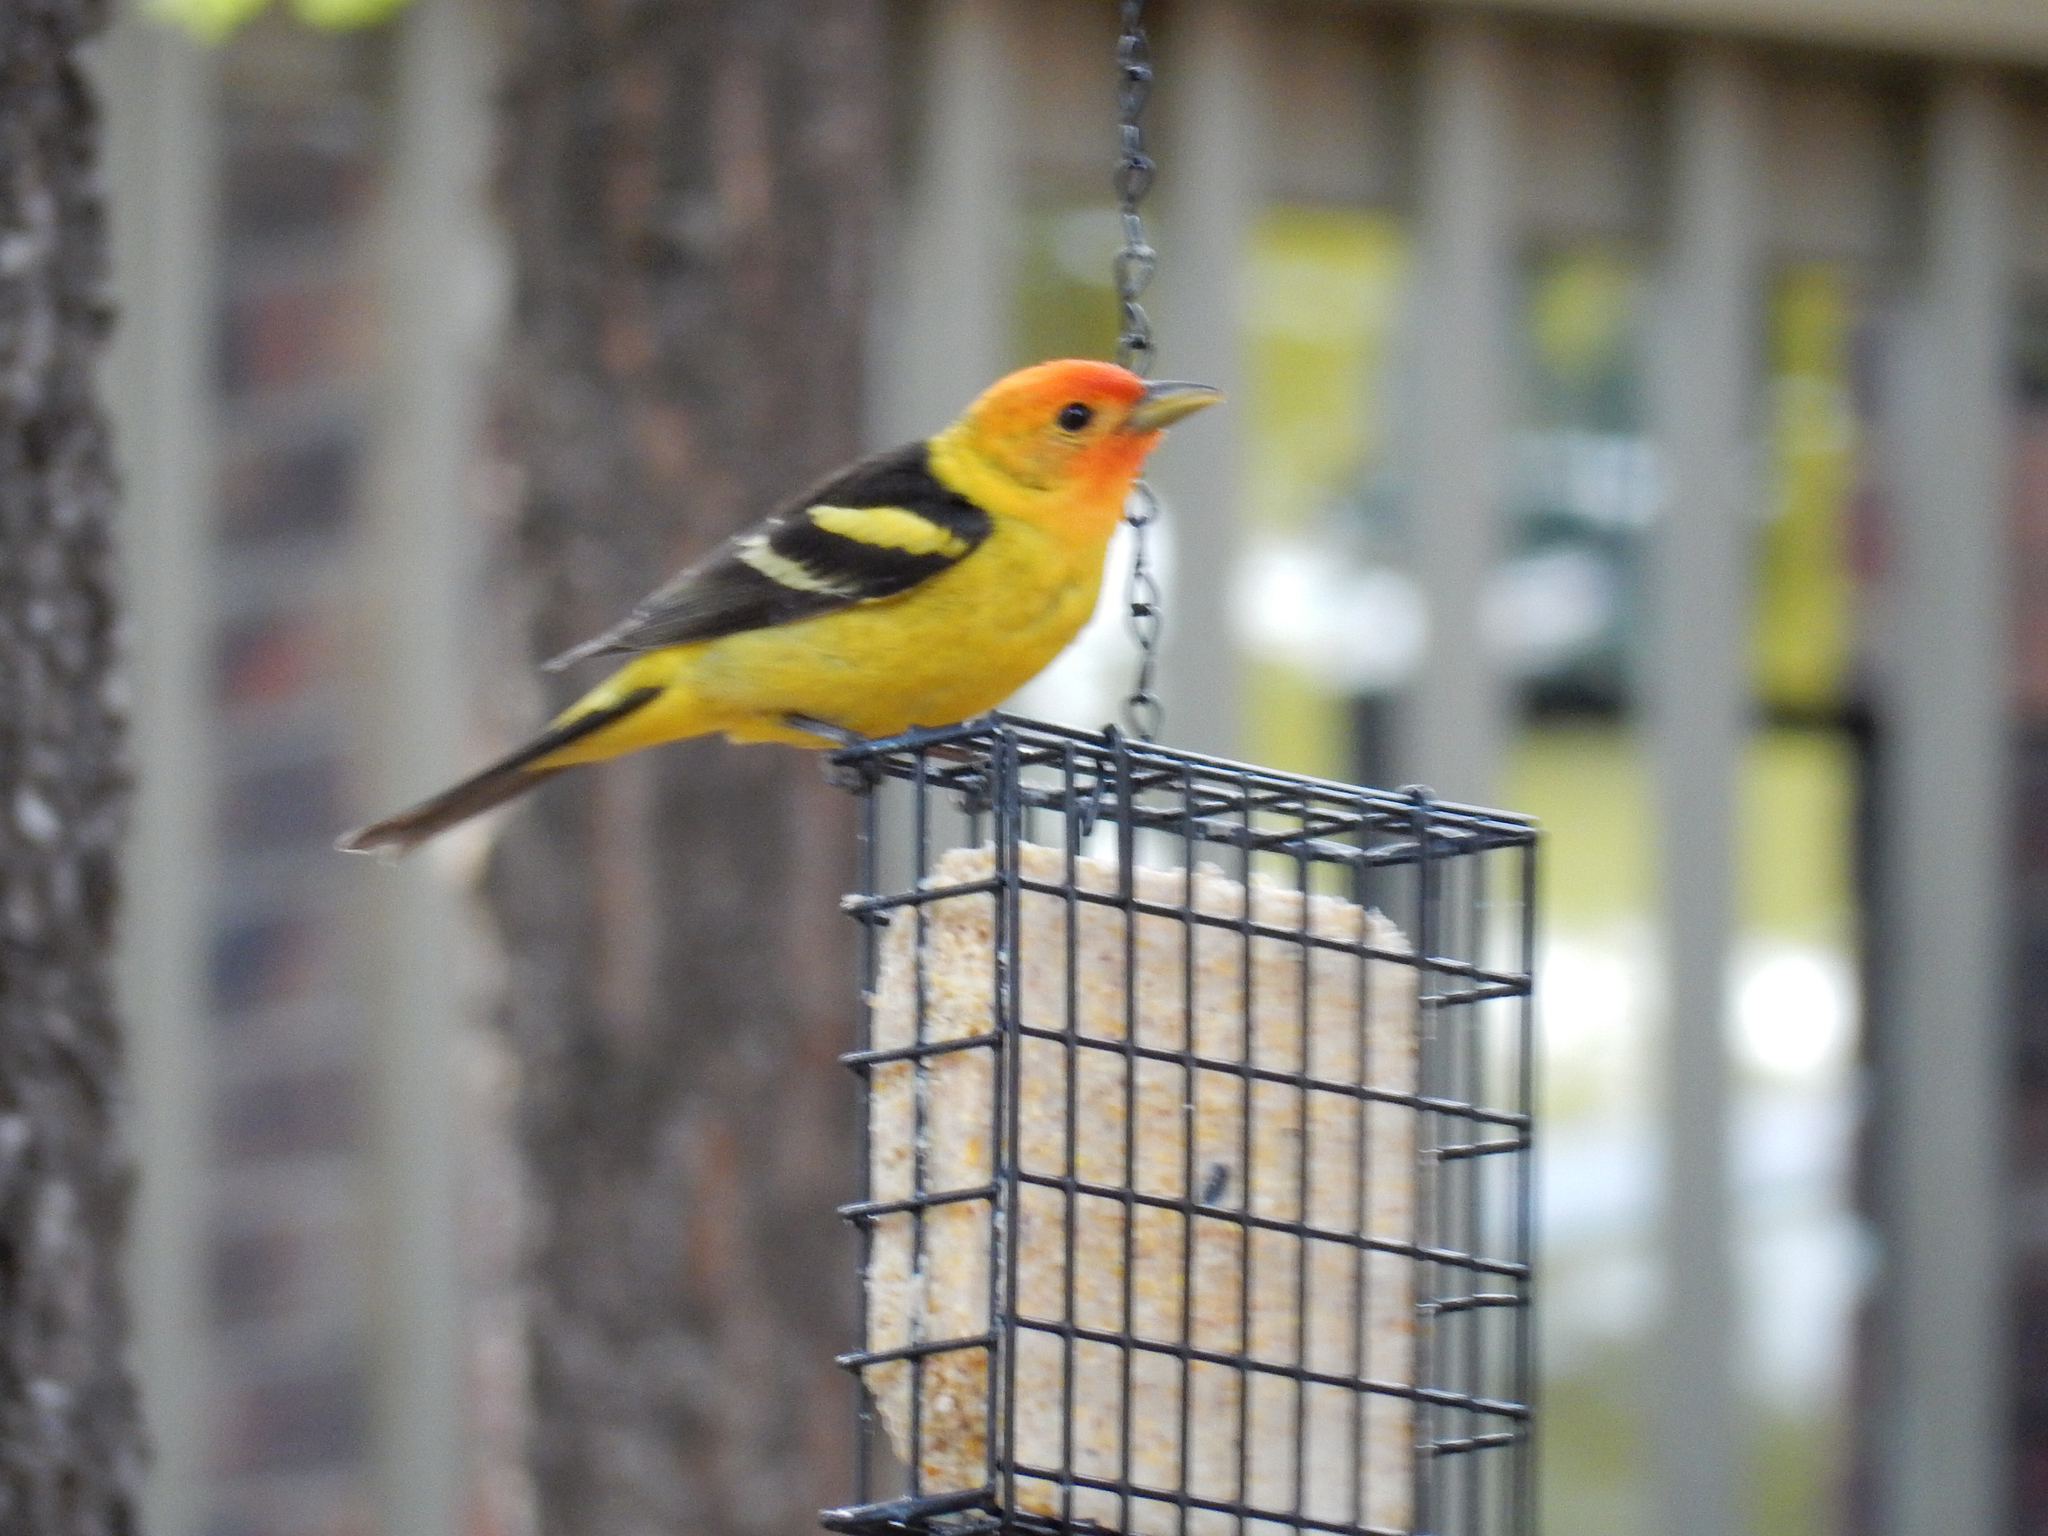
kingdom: Animalia
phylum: Chordata
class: Aves
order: Passeriformes
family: Cardinalidae
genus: Piranga
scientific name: Piranga ludoviciana
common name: Western tanager
